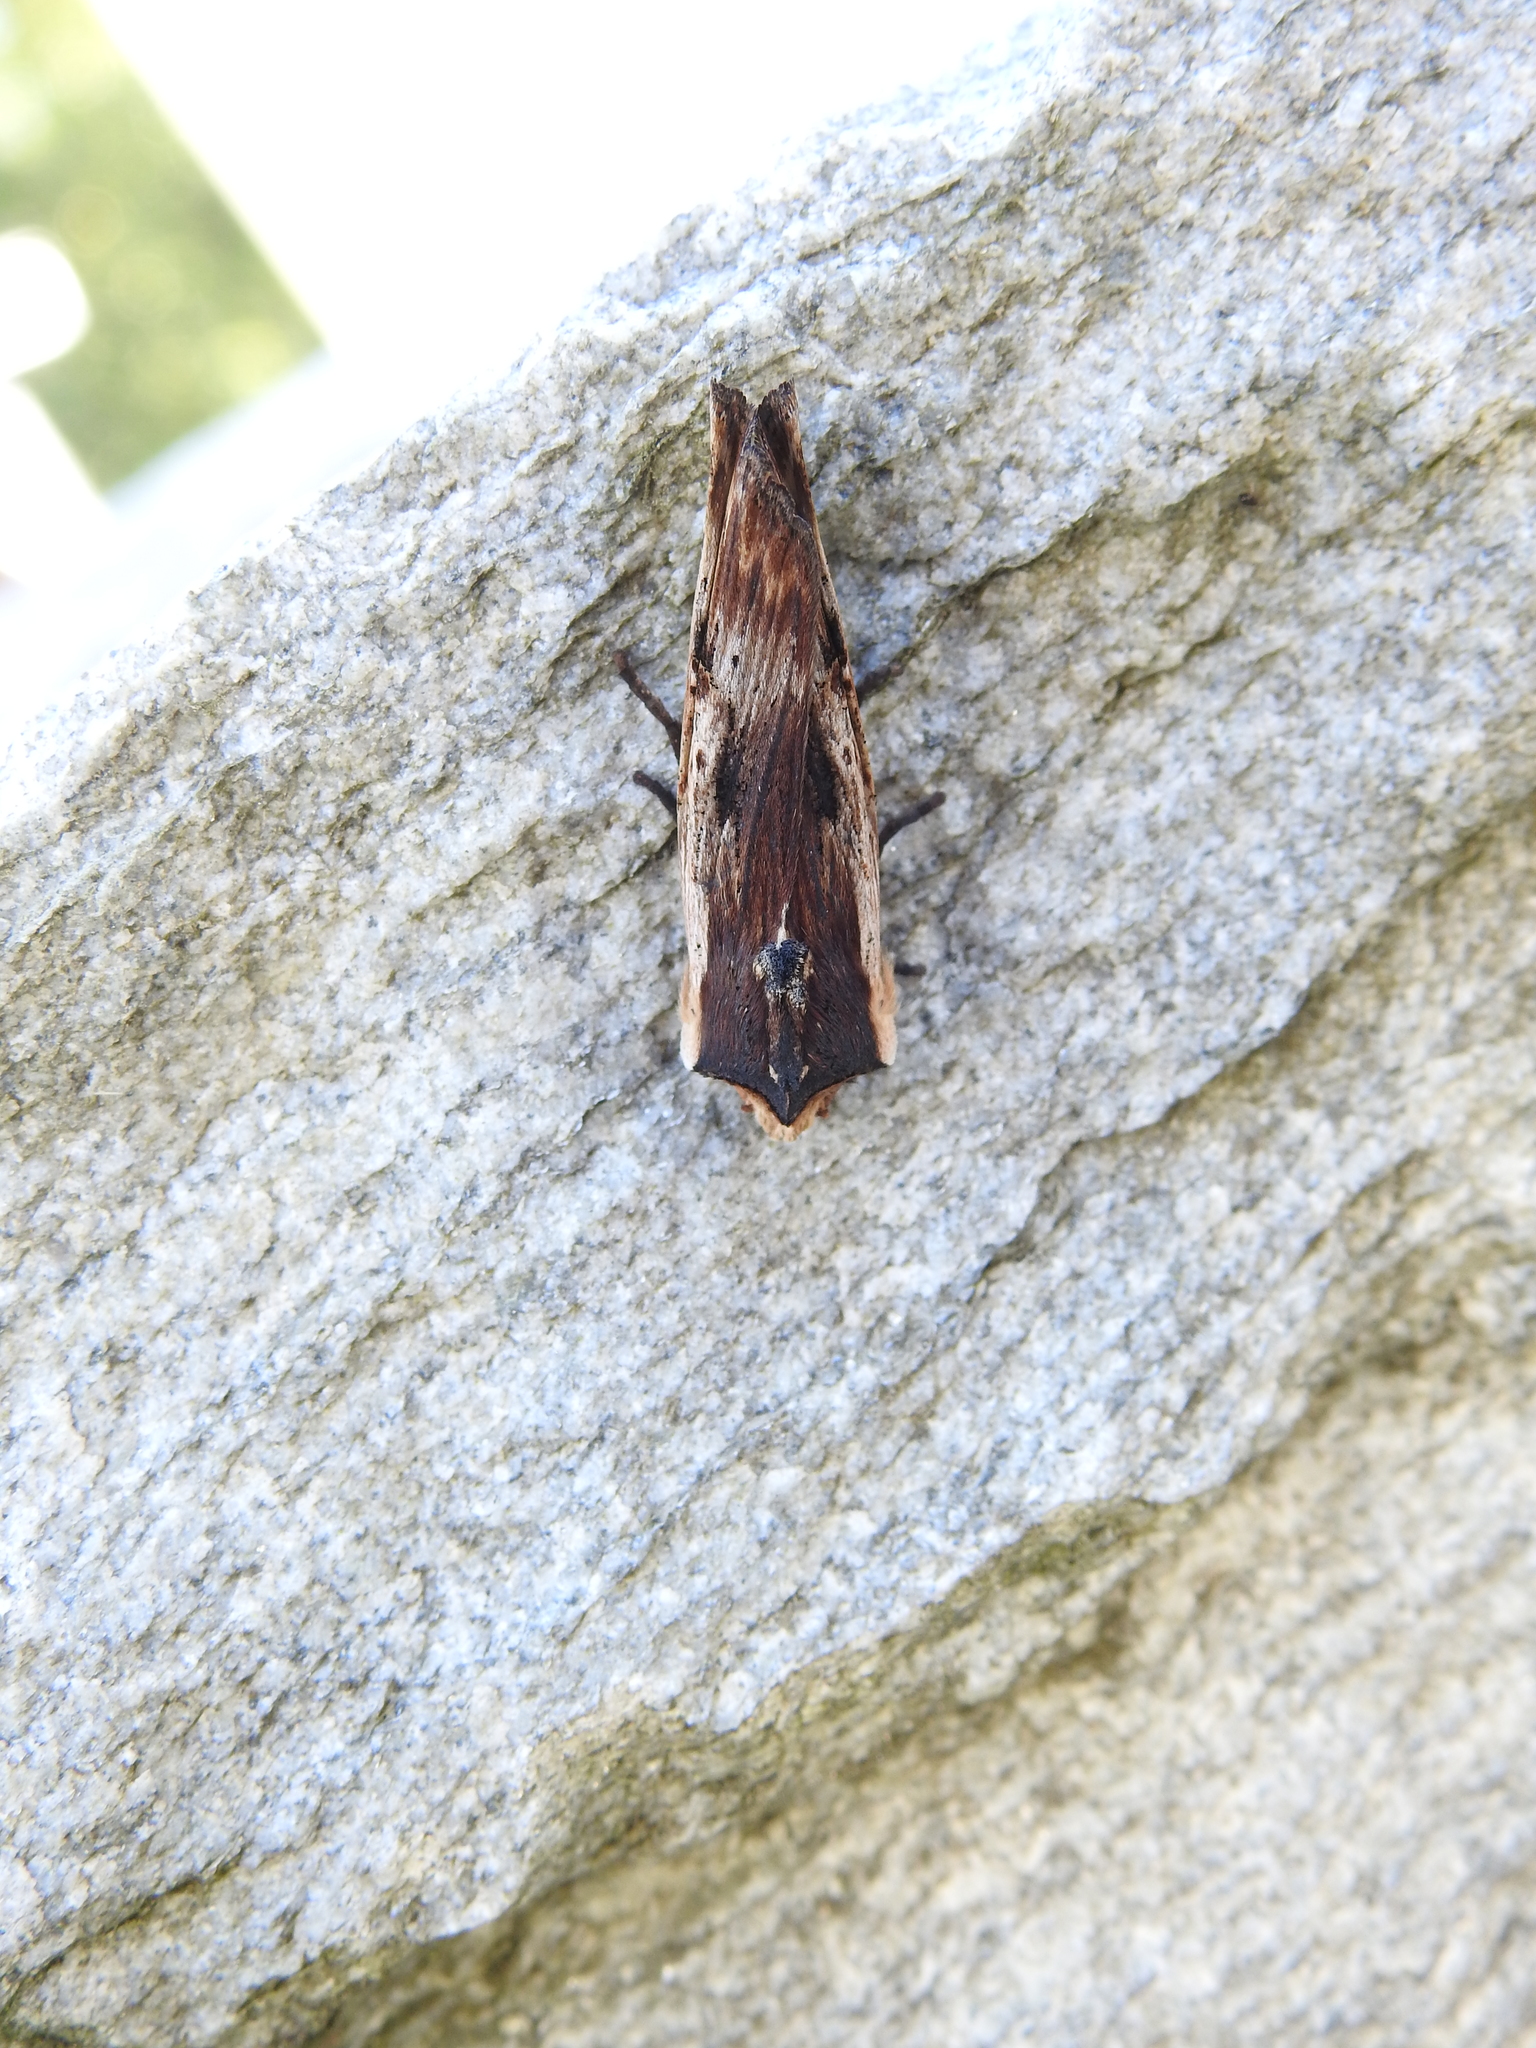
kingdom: Animalia
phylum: Arthropoda
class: Insecta
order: Lepidoptera
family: Noctuidae
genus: Xylena
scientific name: Xylena vetusta
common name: Red sword-grass
